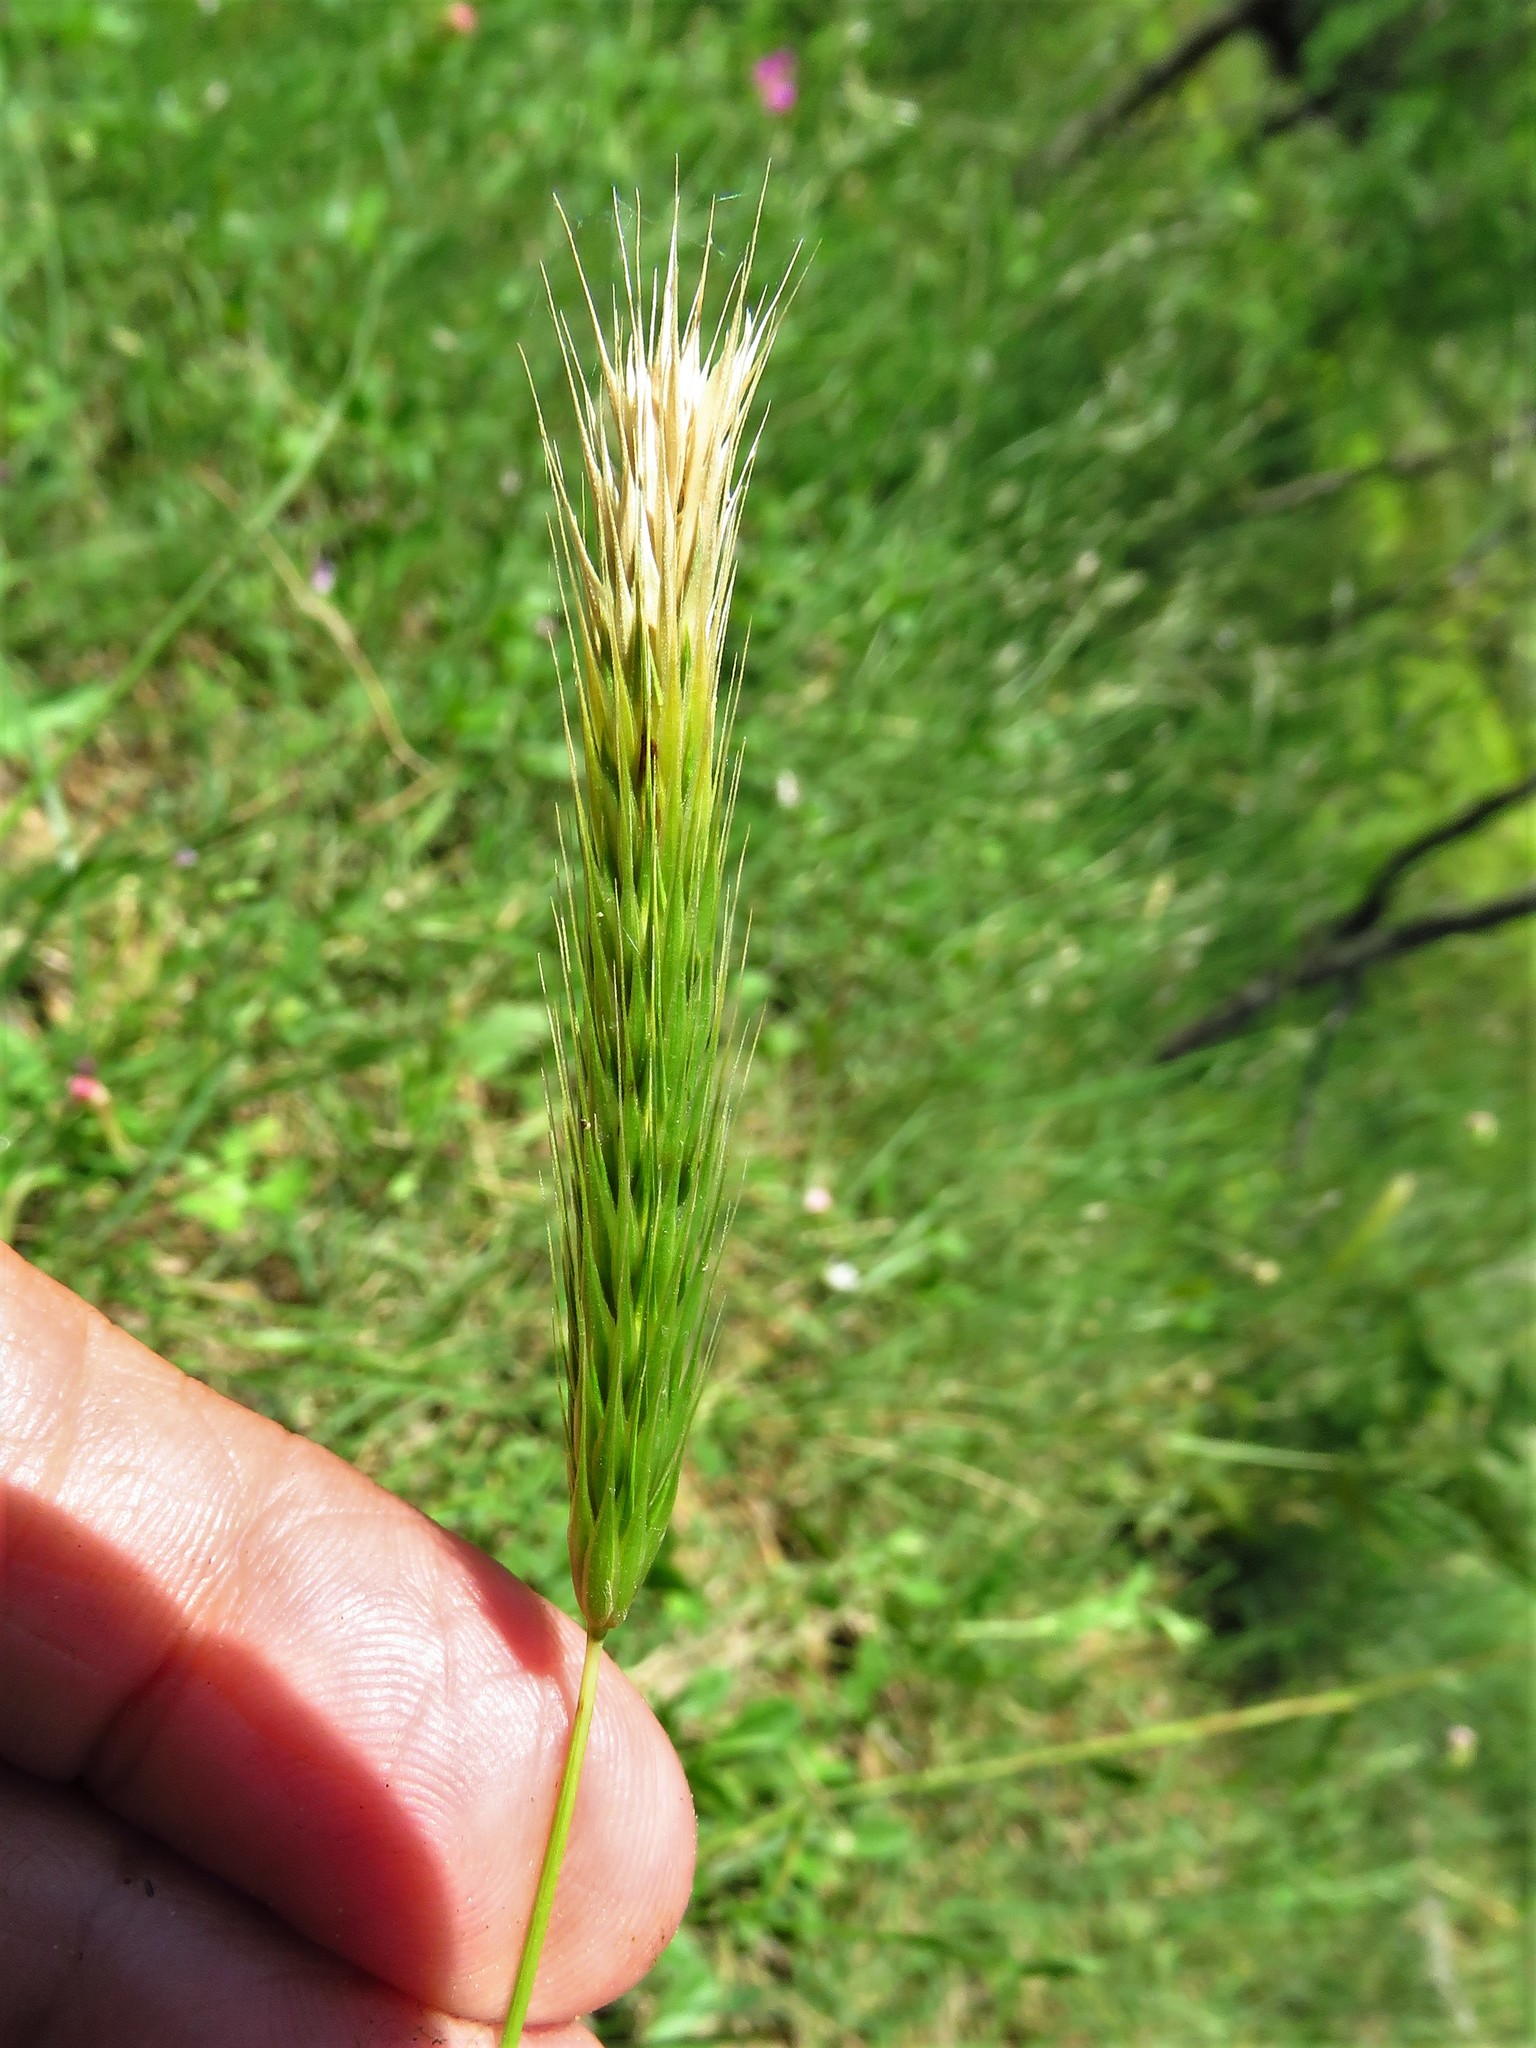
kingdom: Plantae
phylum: Tracheophyta
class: Liliopsida
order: Poales
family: Poaceae
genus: Hordeum
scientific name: Hordeum pusillum
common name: Little barley
